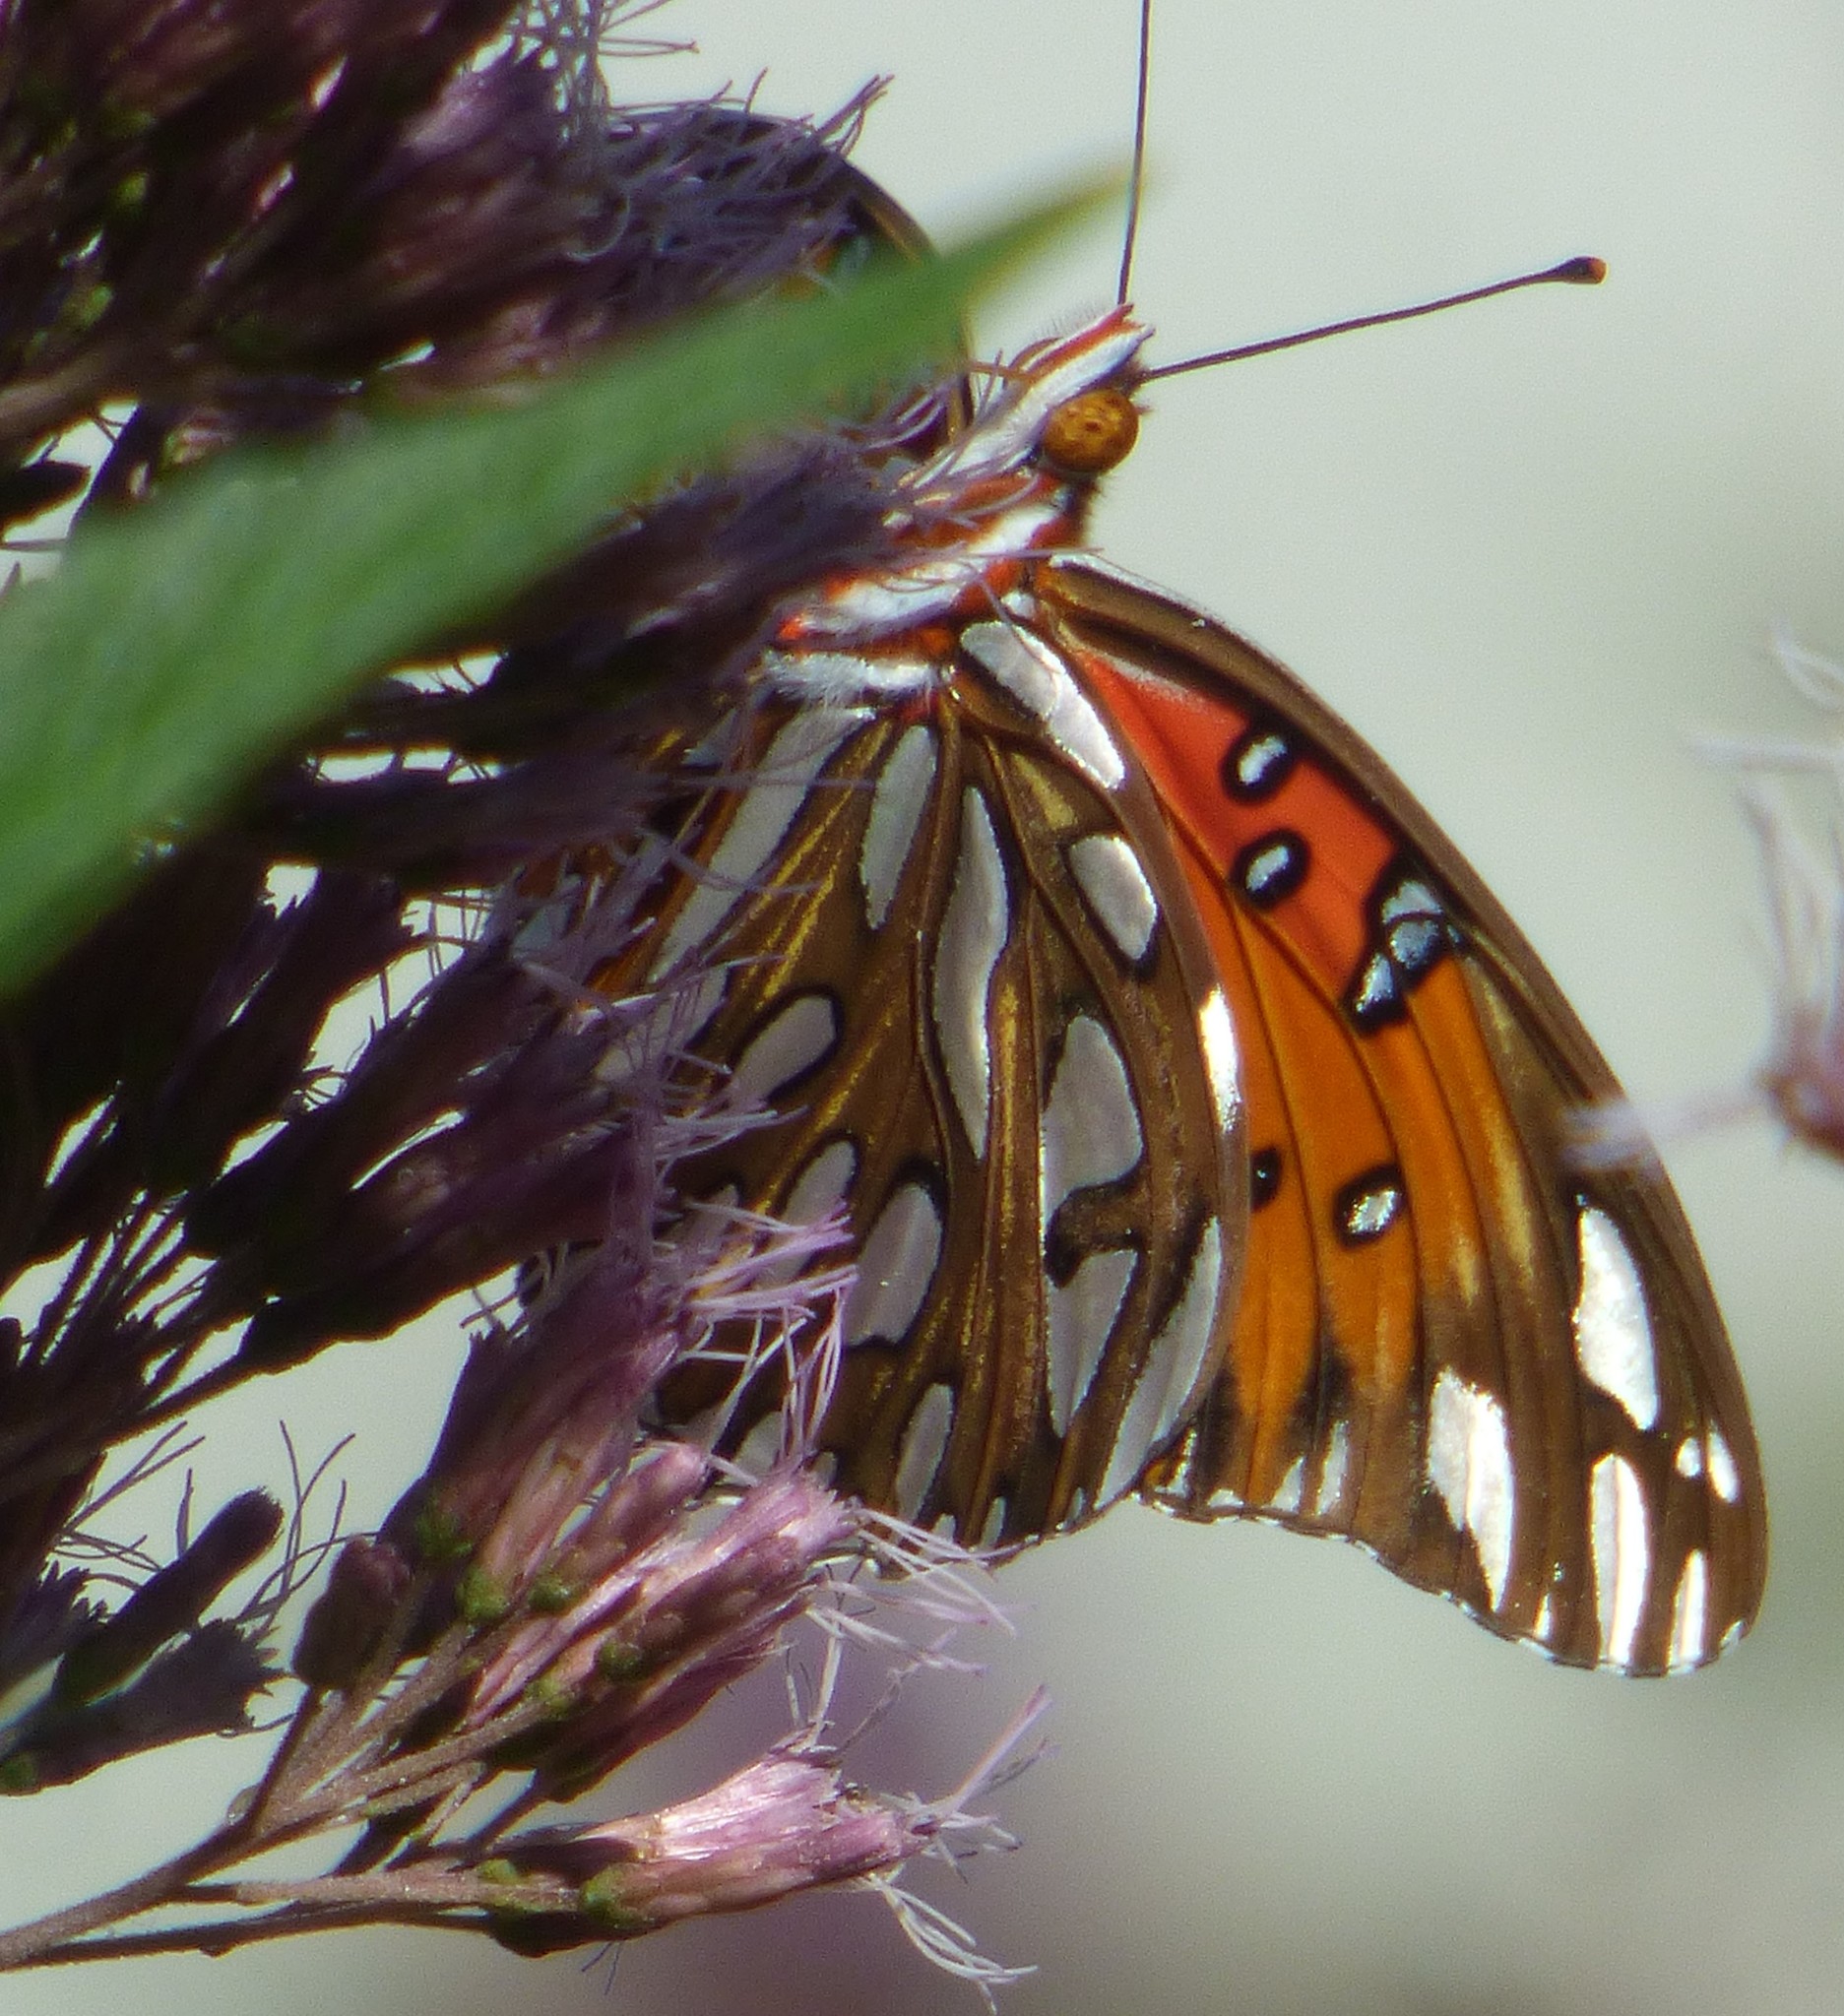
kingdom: Animalia
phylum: Arthropoda
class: Insecta
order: Lepidoptera
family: Nymphalidae
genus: Dione
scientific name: Dione vanillae
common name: Gulf fritillary
